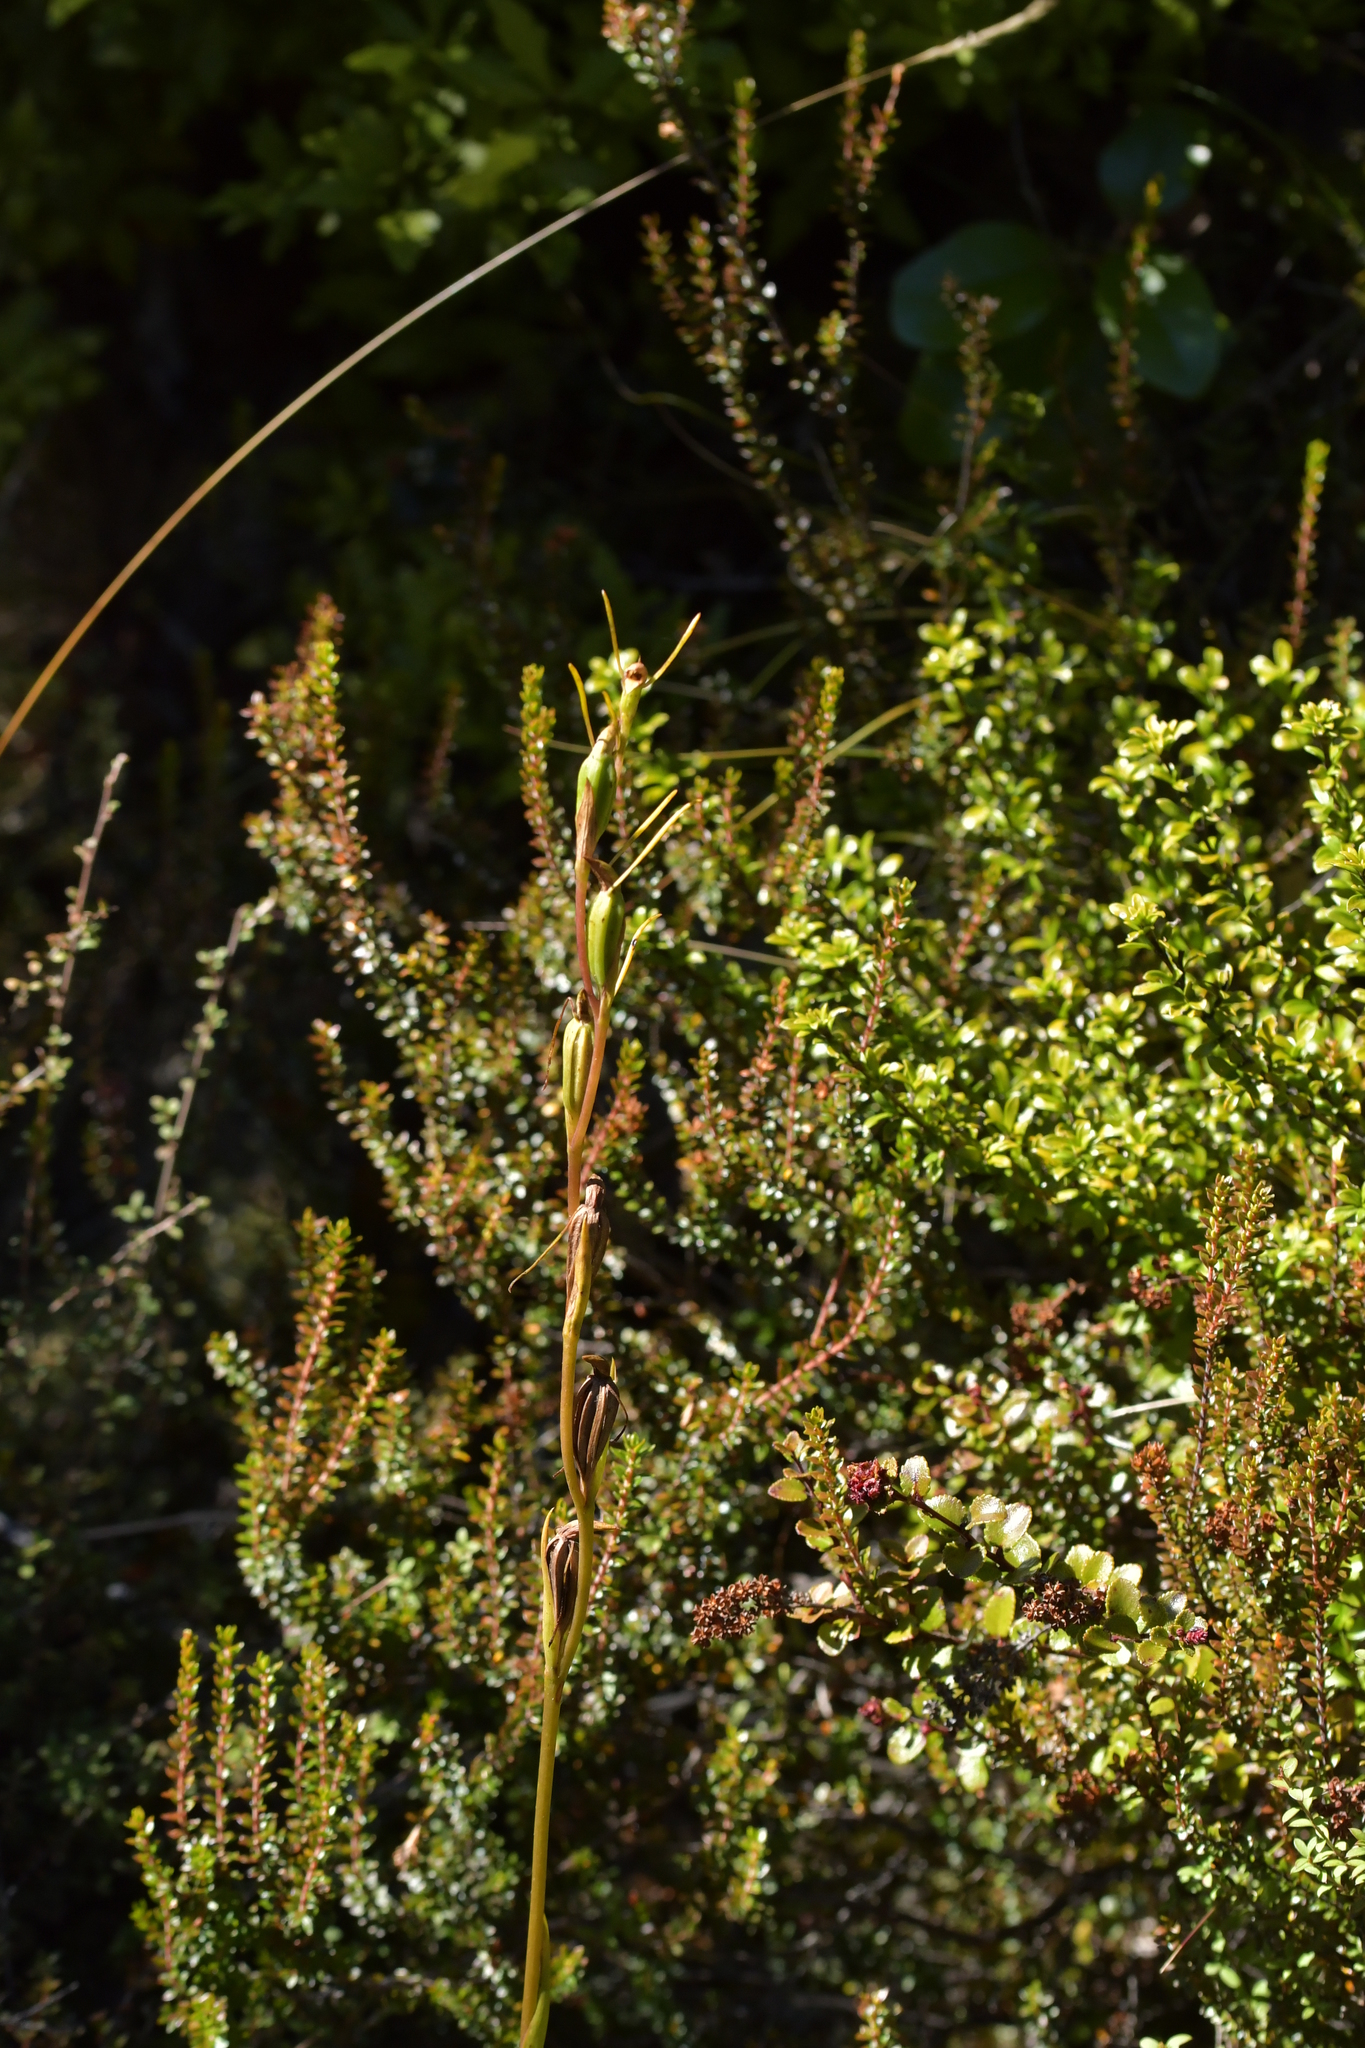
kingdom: Plantae
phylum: Tracheophyta
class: Liliopsida
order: Asparagales
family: Orchidaceae
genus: Orthoceras
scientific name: Orthoceras novae-zeelandiae
